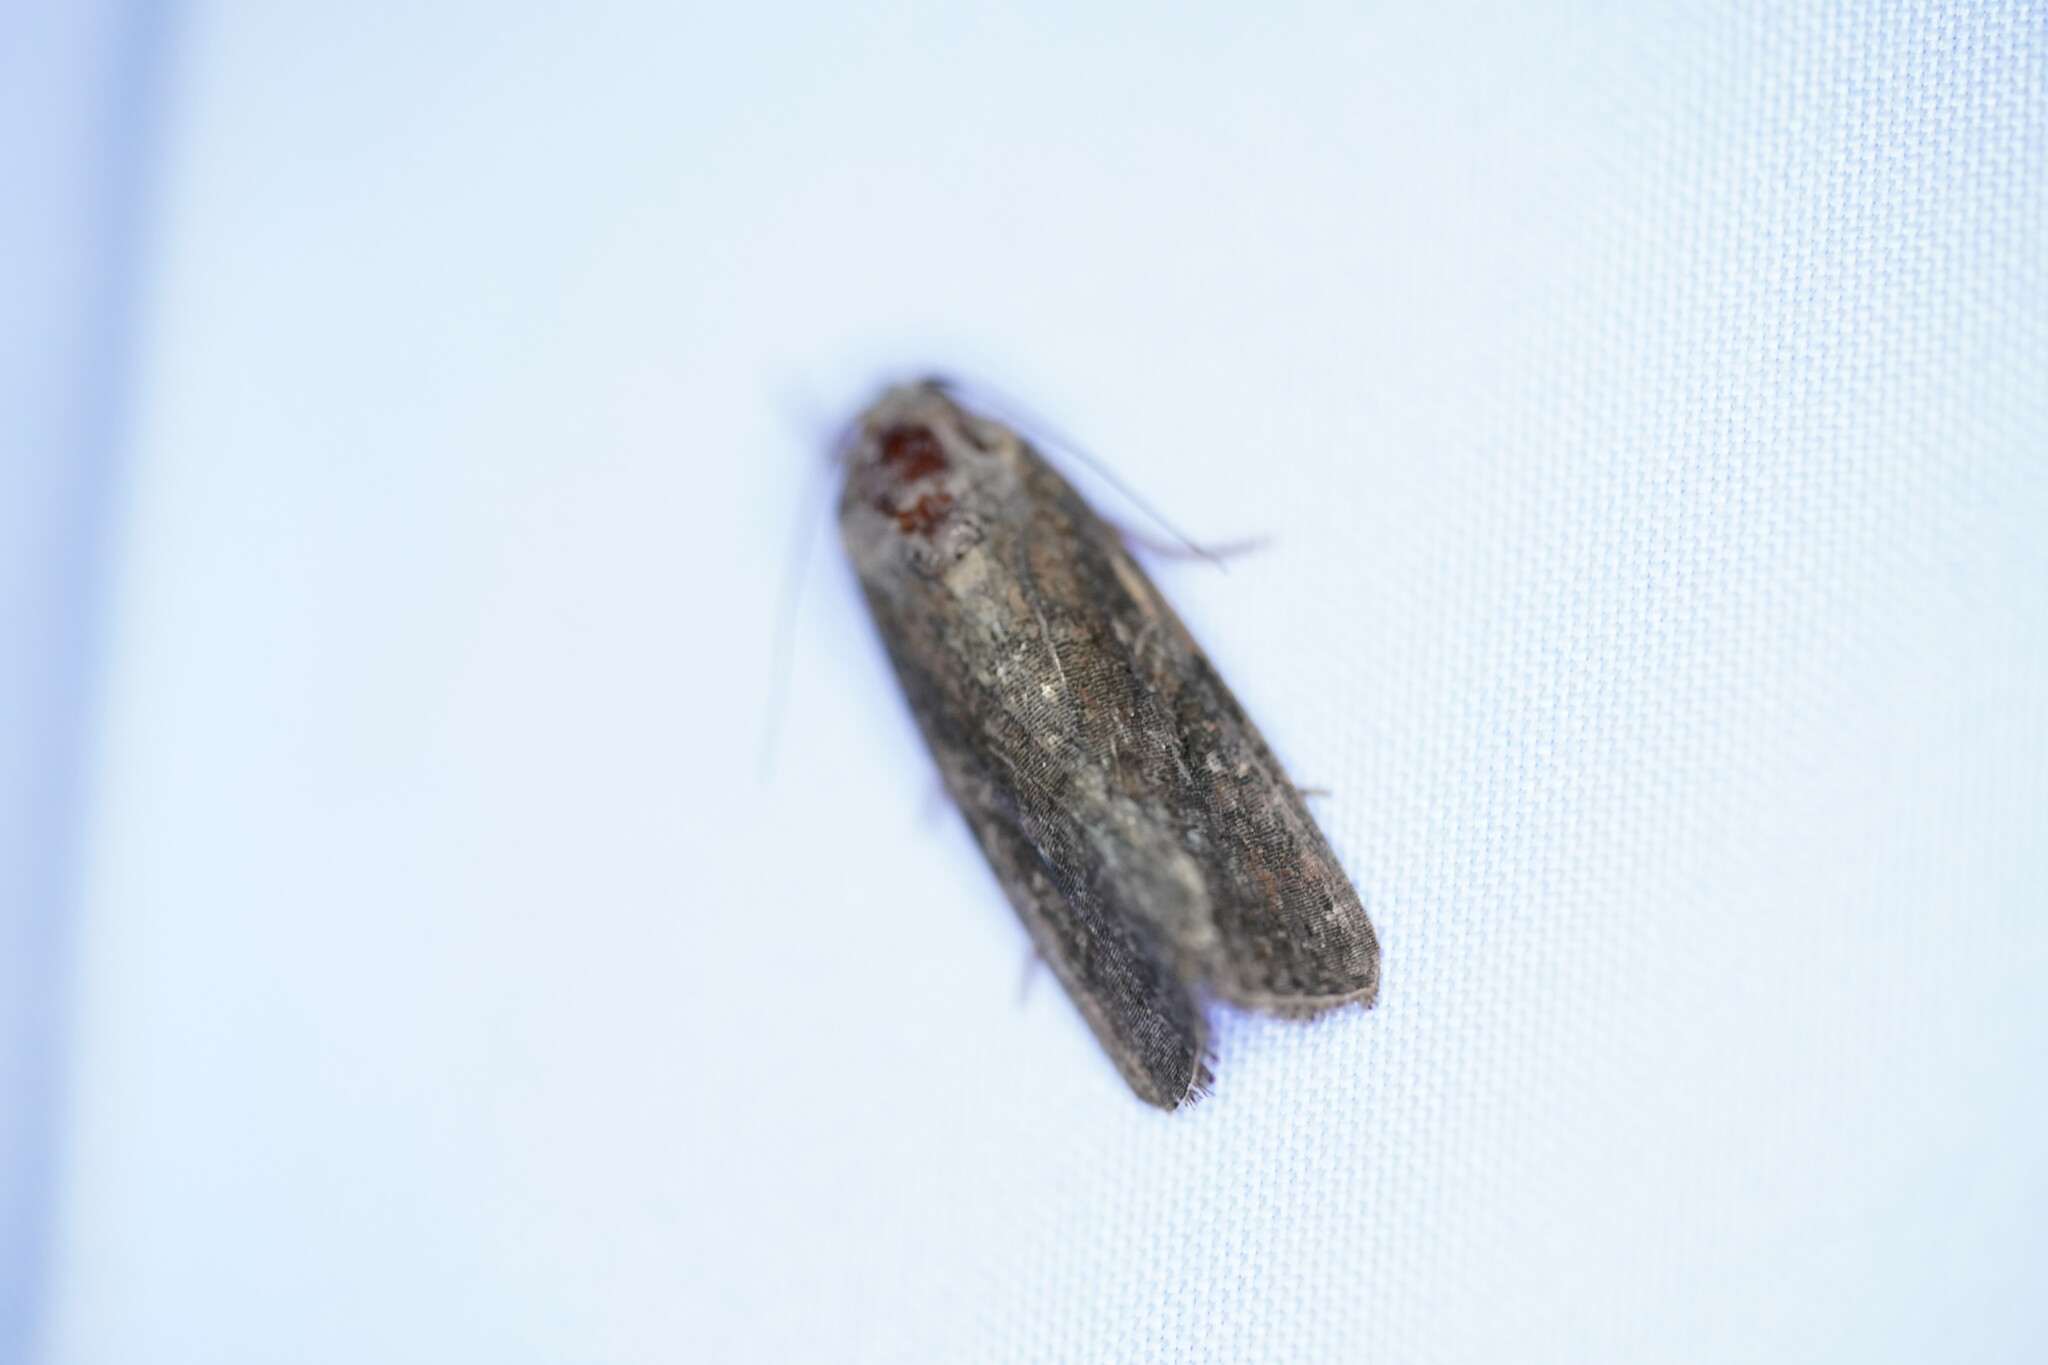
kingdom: Animalia
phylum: Arthropoda
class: Insecta
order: Lepidoptera
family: Noctuidae
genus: Spodoptera
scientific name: Spodoptera frugiperda
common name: Fall armyworm
